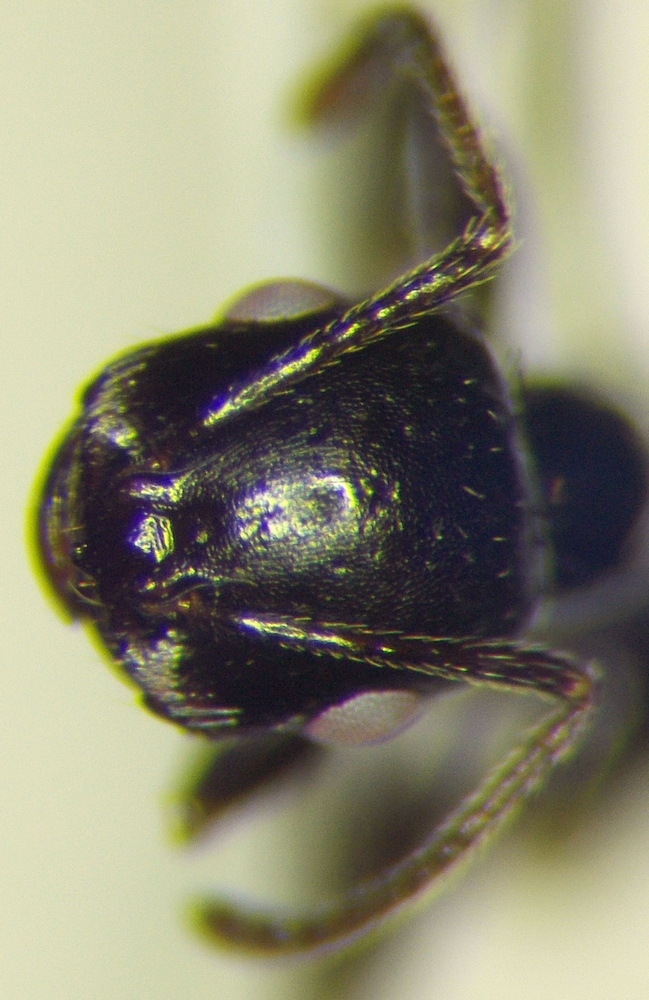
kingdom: Animalia
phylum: Arthropoda
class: Insecta
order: Hymenoptera
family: Formicidae
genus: Messor
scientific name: Messor pergandei
